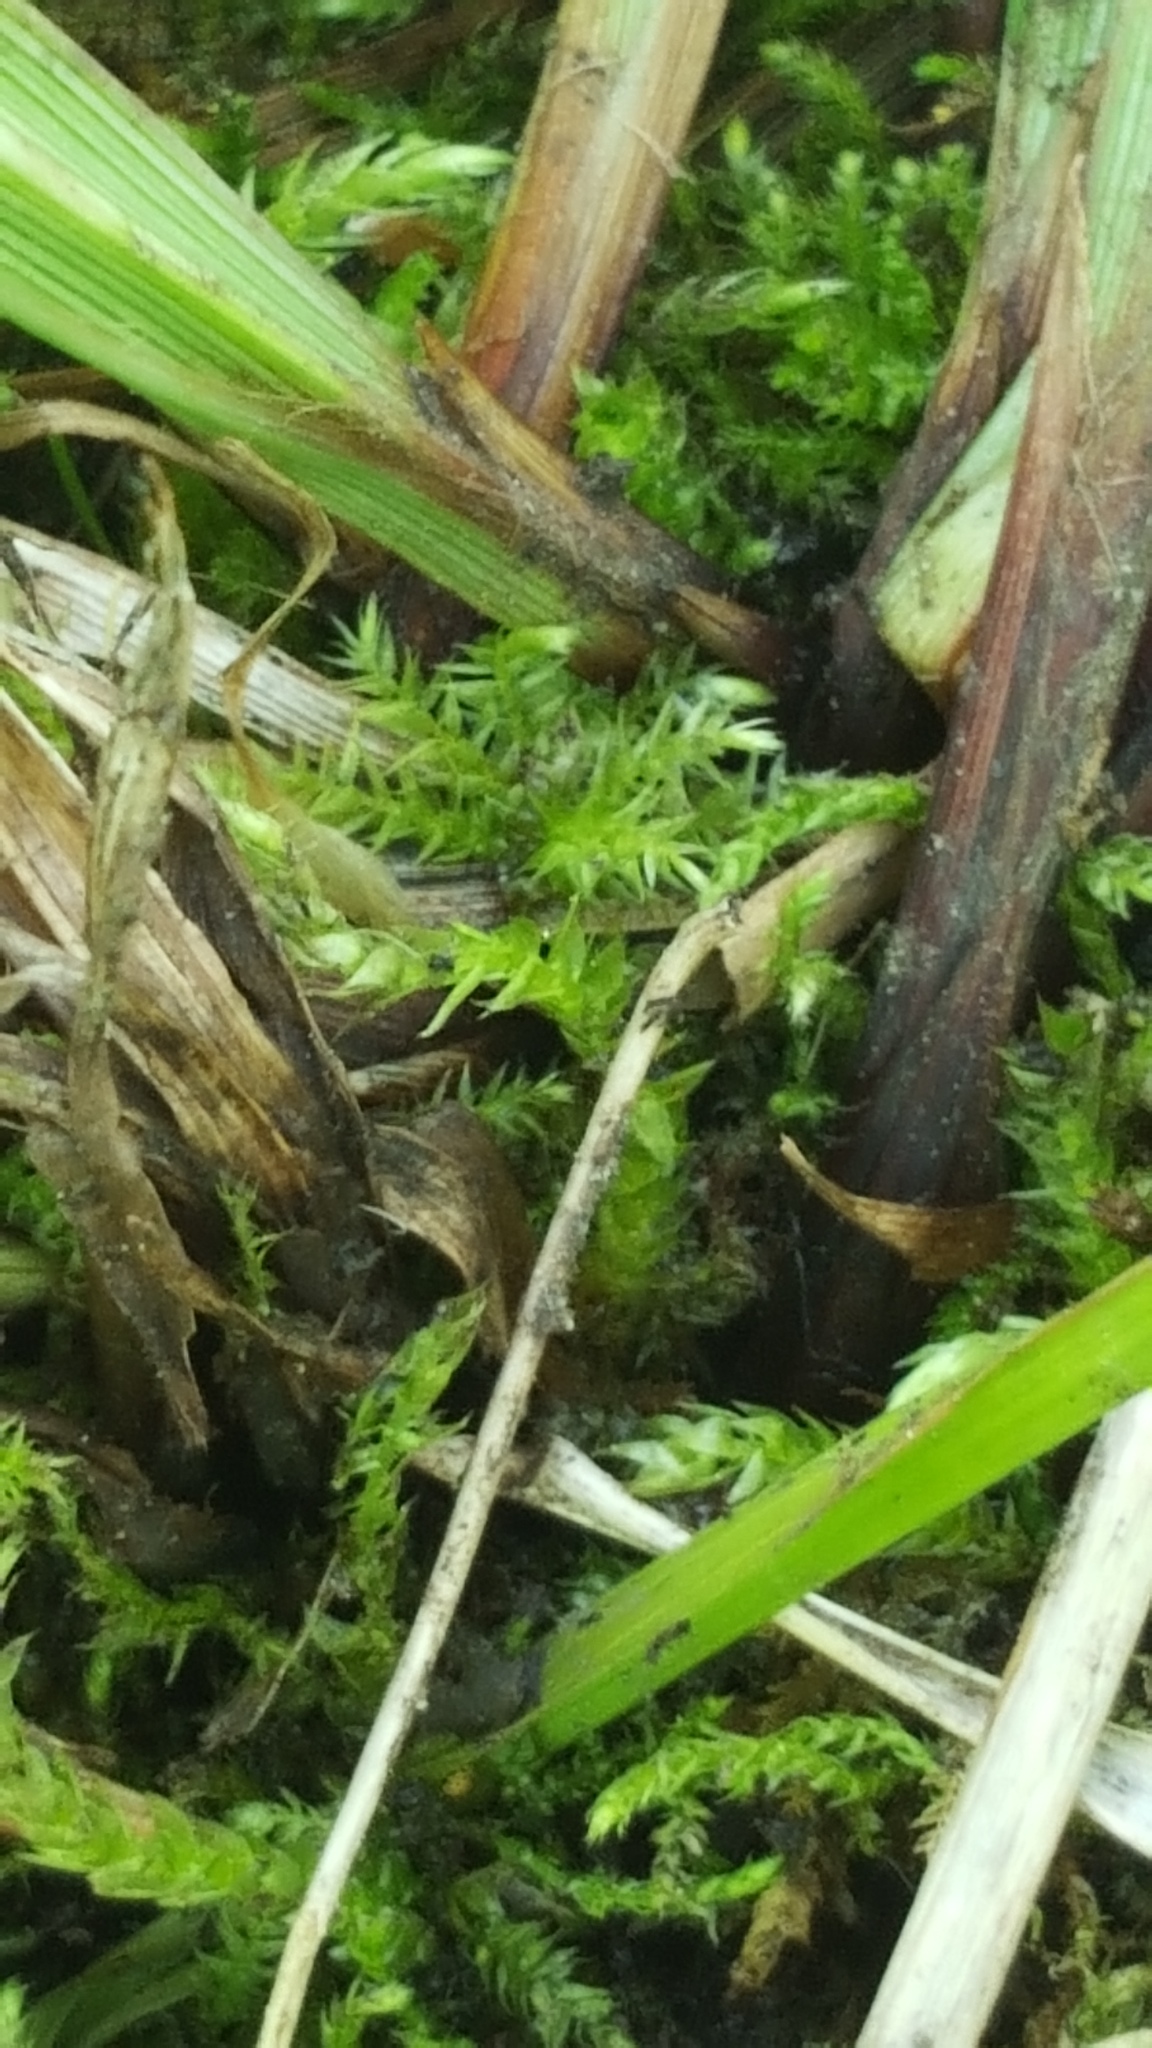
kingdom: Plantae
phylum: Tracheophyta
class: Liliopsida
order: Poales
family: Cyperaceae
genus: Carex
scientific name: Carex gracillima
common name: Graceful sedge
